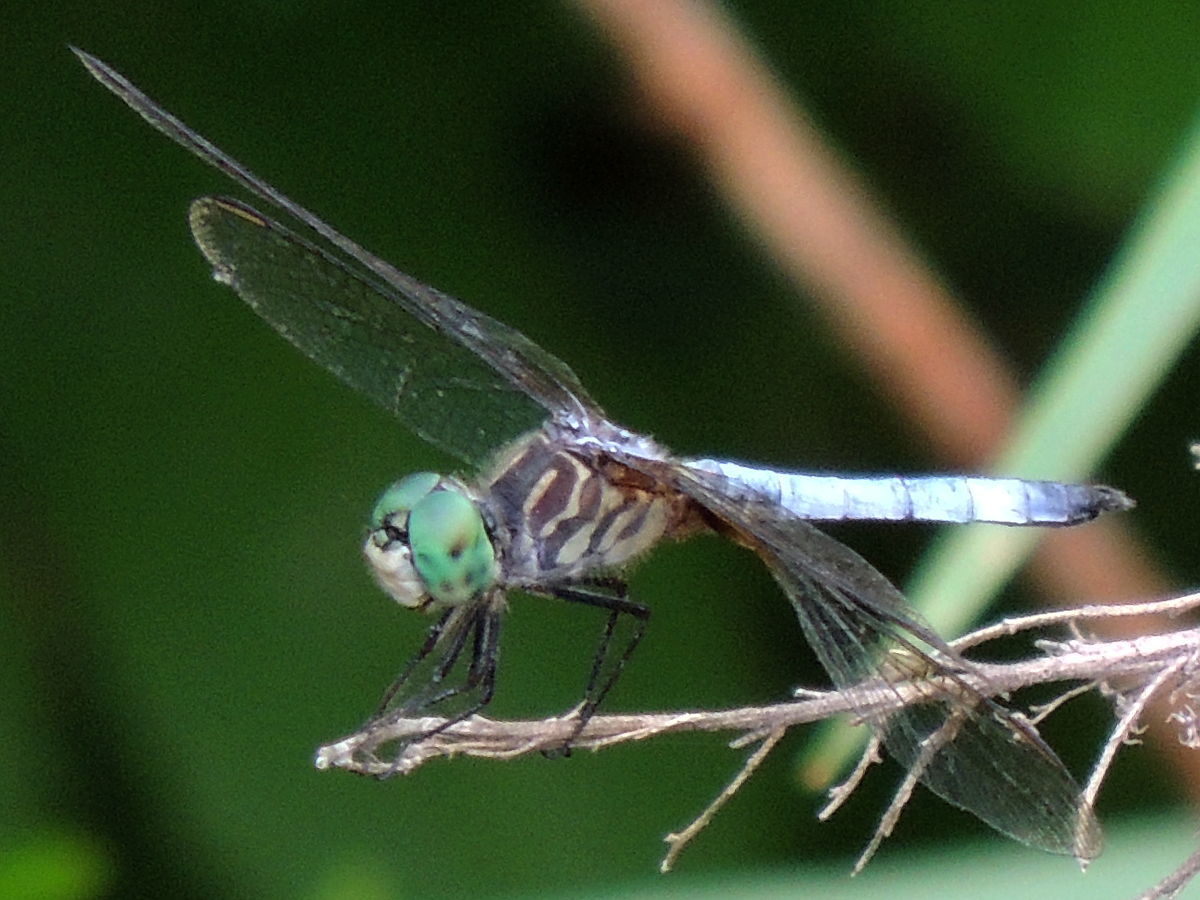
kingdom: Animalia
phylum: Arthropoda
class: Insecta
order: Odonata
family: Libellulidae
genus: Pachydiplax
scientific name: Pachydiplax longipennis
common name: Blue dasher
